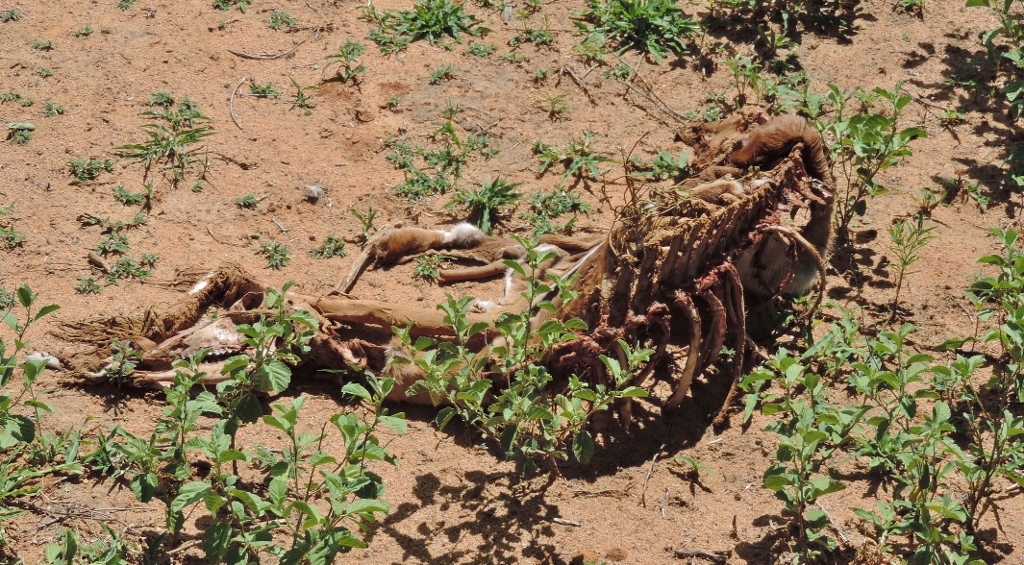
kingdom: Animalia
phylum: Chordata
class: Mammalia
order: Artiodactyla
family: Bovidae
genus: Aepyceros
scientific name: Aepyceros melampus
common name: Impala
